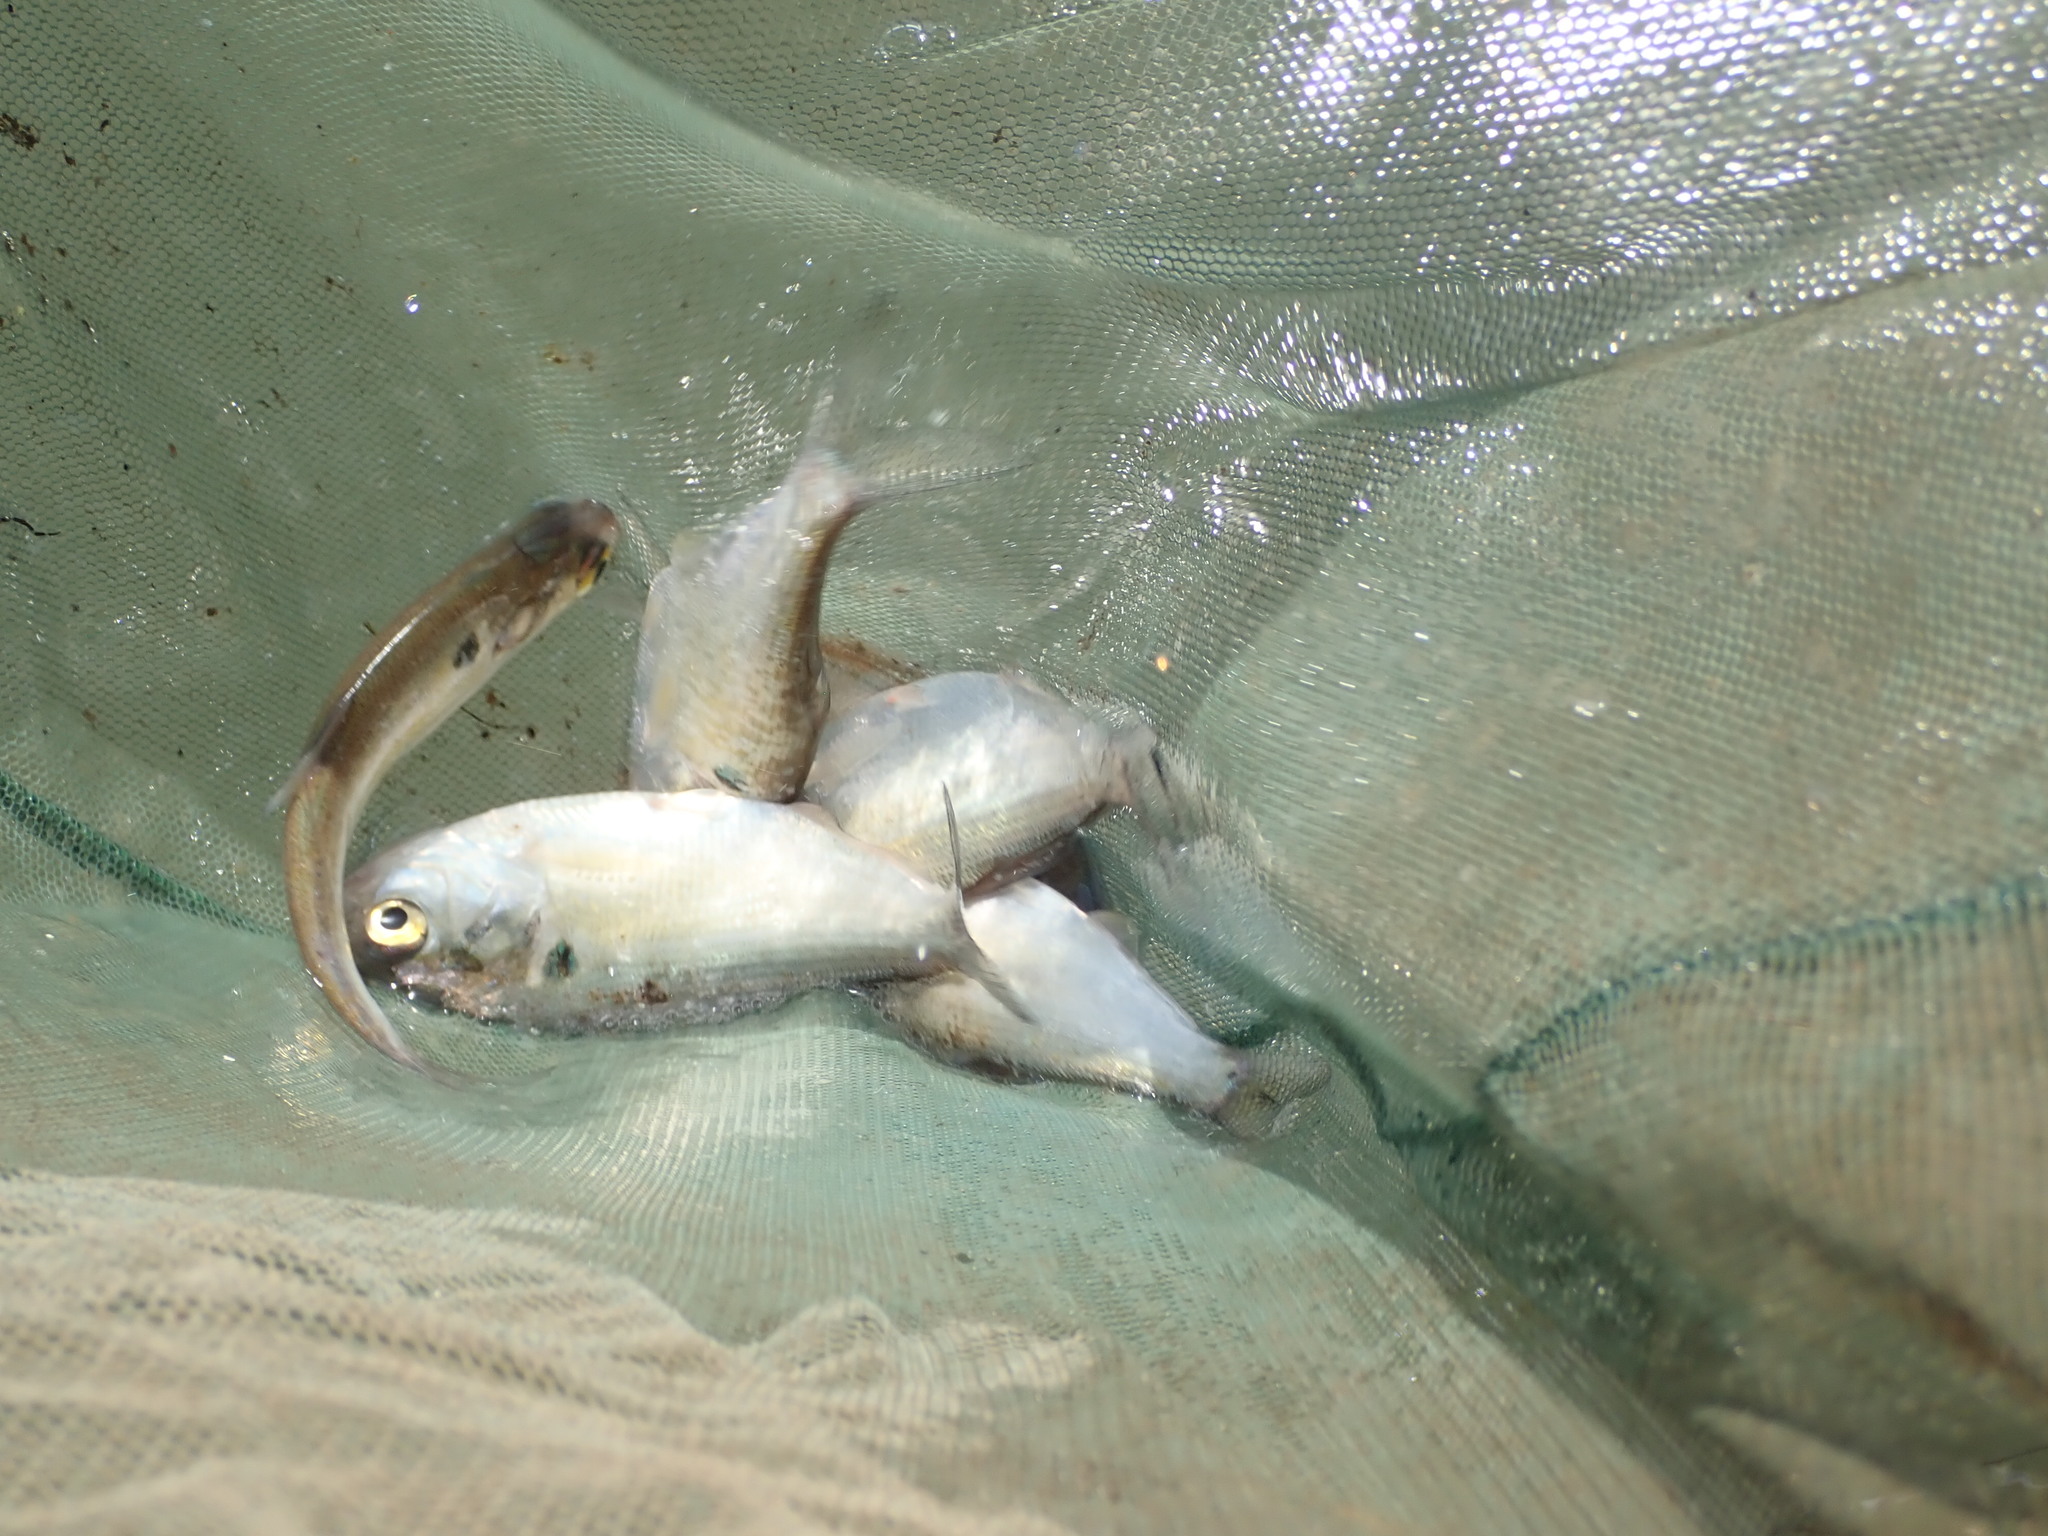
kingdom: Animalia
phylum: Chordata
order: Clupeiformes
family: Clupeidae
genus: Dorosoma
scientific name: Dorosoma cepedianum
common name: Gizzard shad
